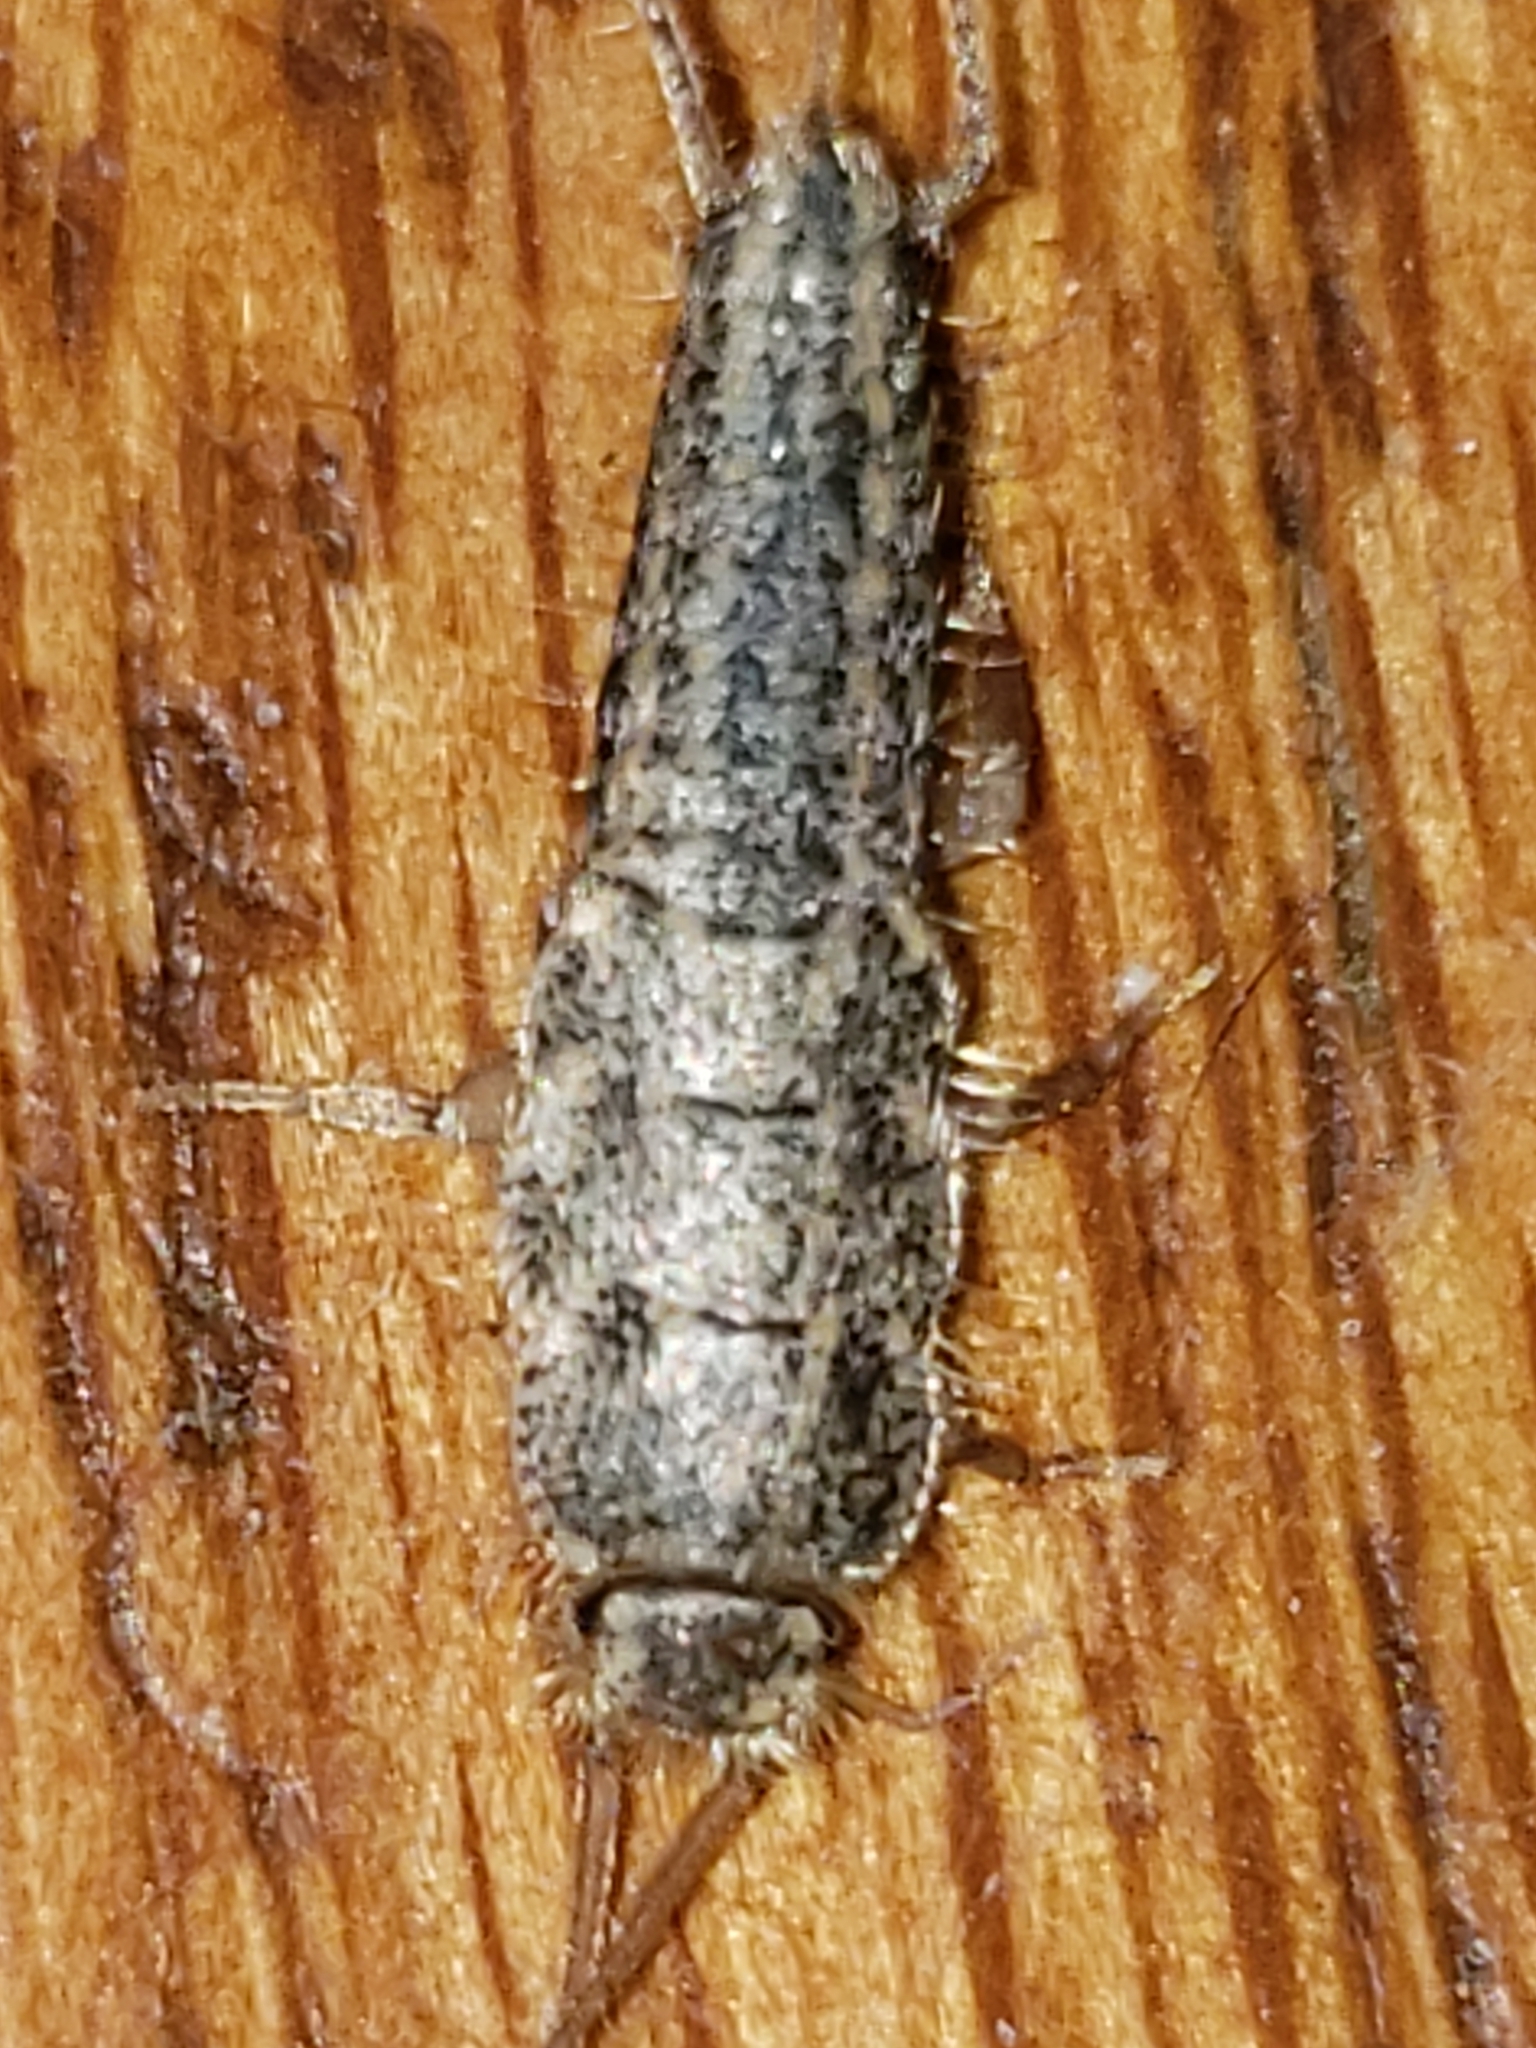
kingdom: Animalia
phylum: Arthropoda
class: Insecta
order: Zygentoma
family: Lepismatidae
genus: Ctenolepisma
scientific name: Ctenolepisma lineata
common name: Four-lined silverfish
